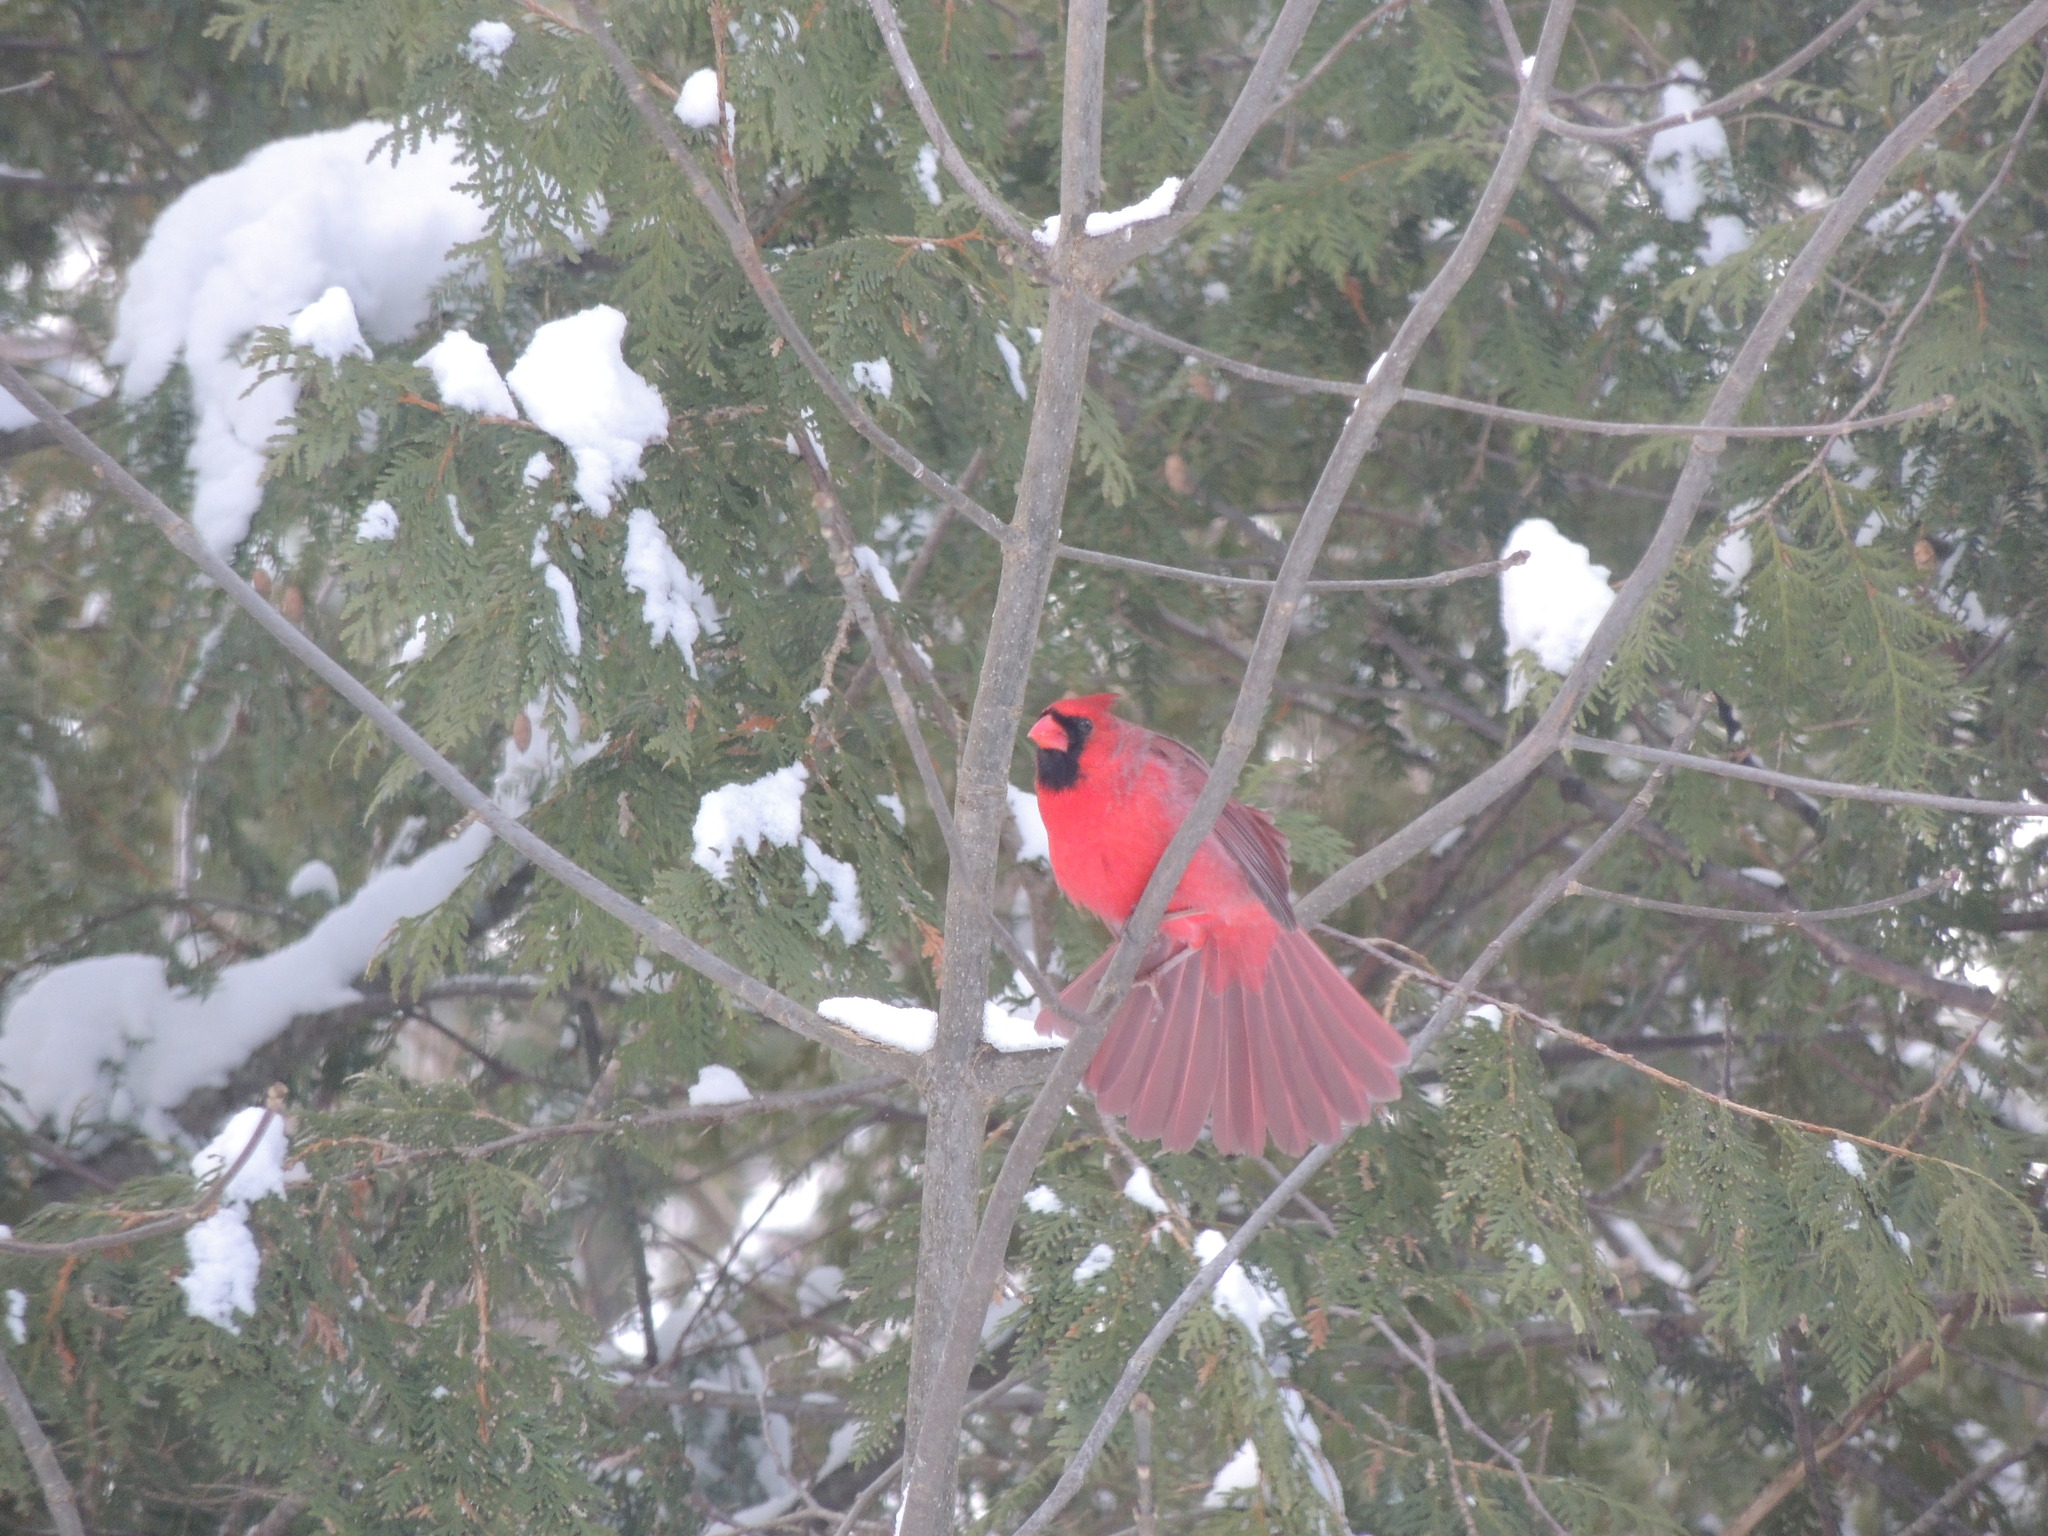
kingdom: Animalia
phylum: Chordata
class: Aves
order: Passeriformes
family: Cardinalidae
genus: Cardinalis
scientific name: Cardinalis cardinalis
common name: Northern cardinal
